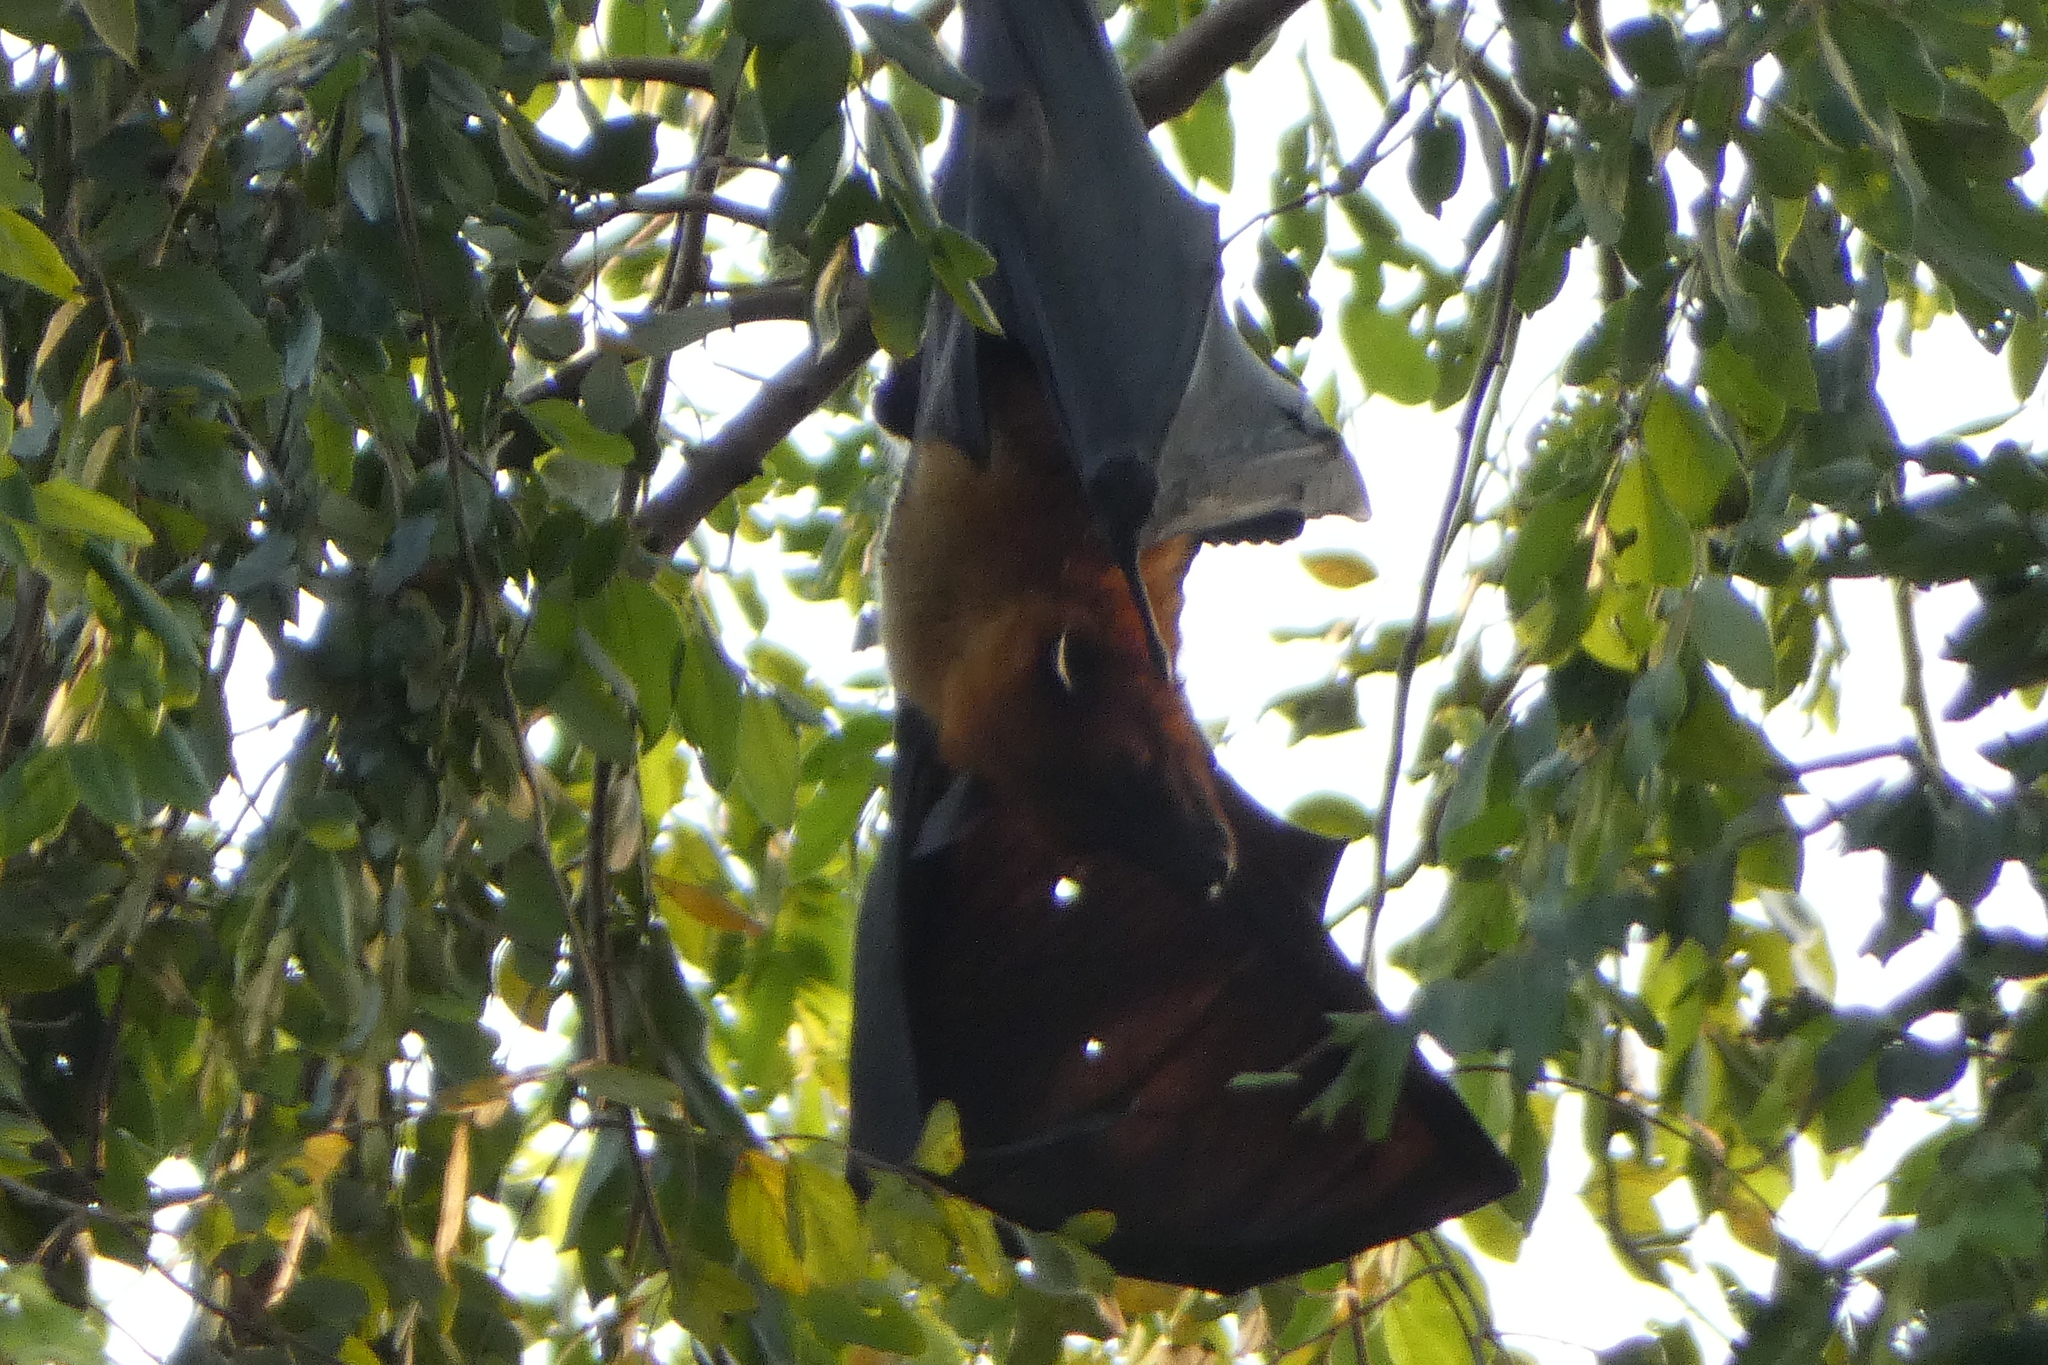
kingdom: Animalia
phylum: Chordata
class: Mammalia
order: Chiroptera
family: Pteropodidae
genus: Pteropus
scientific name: Pteropus vampyrus
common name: Large flying fox
